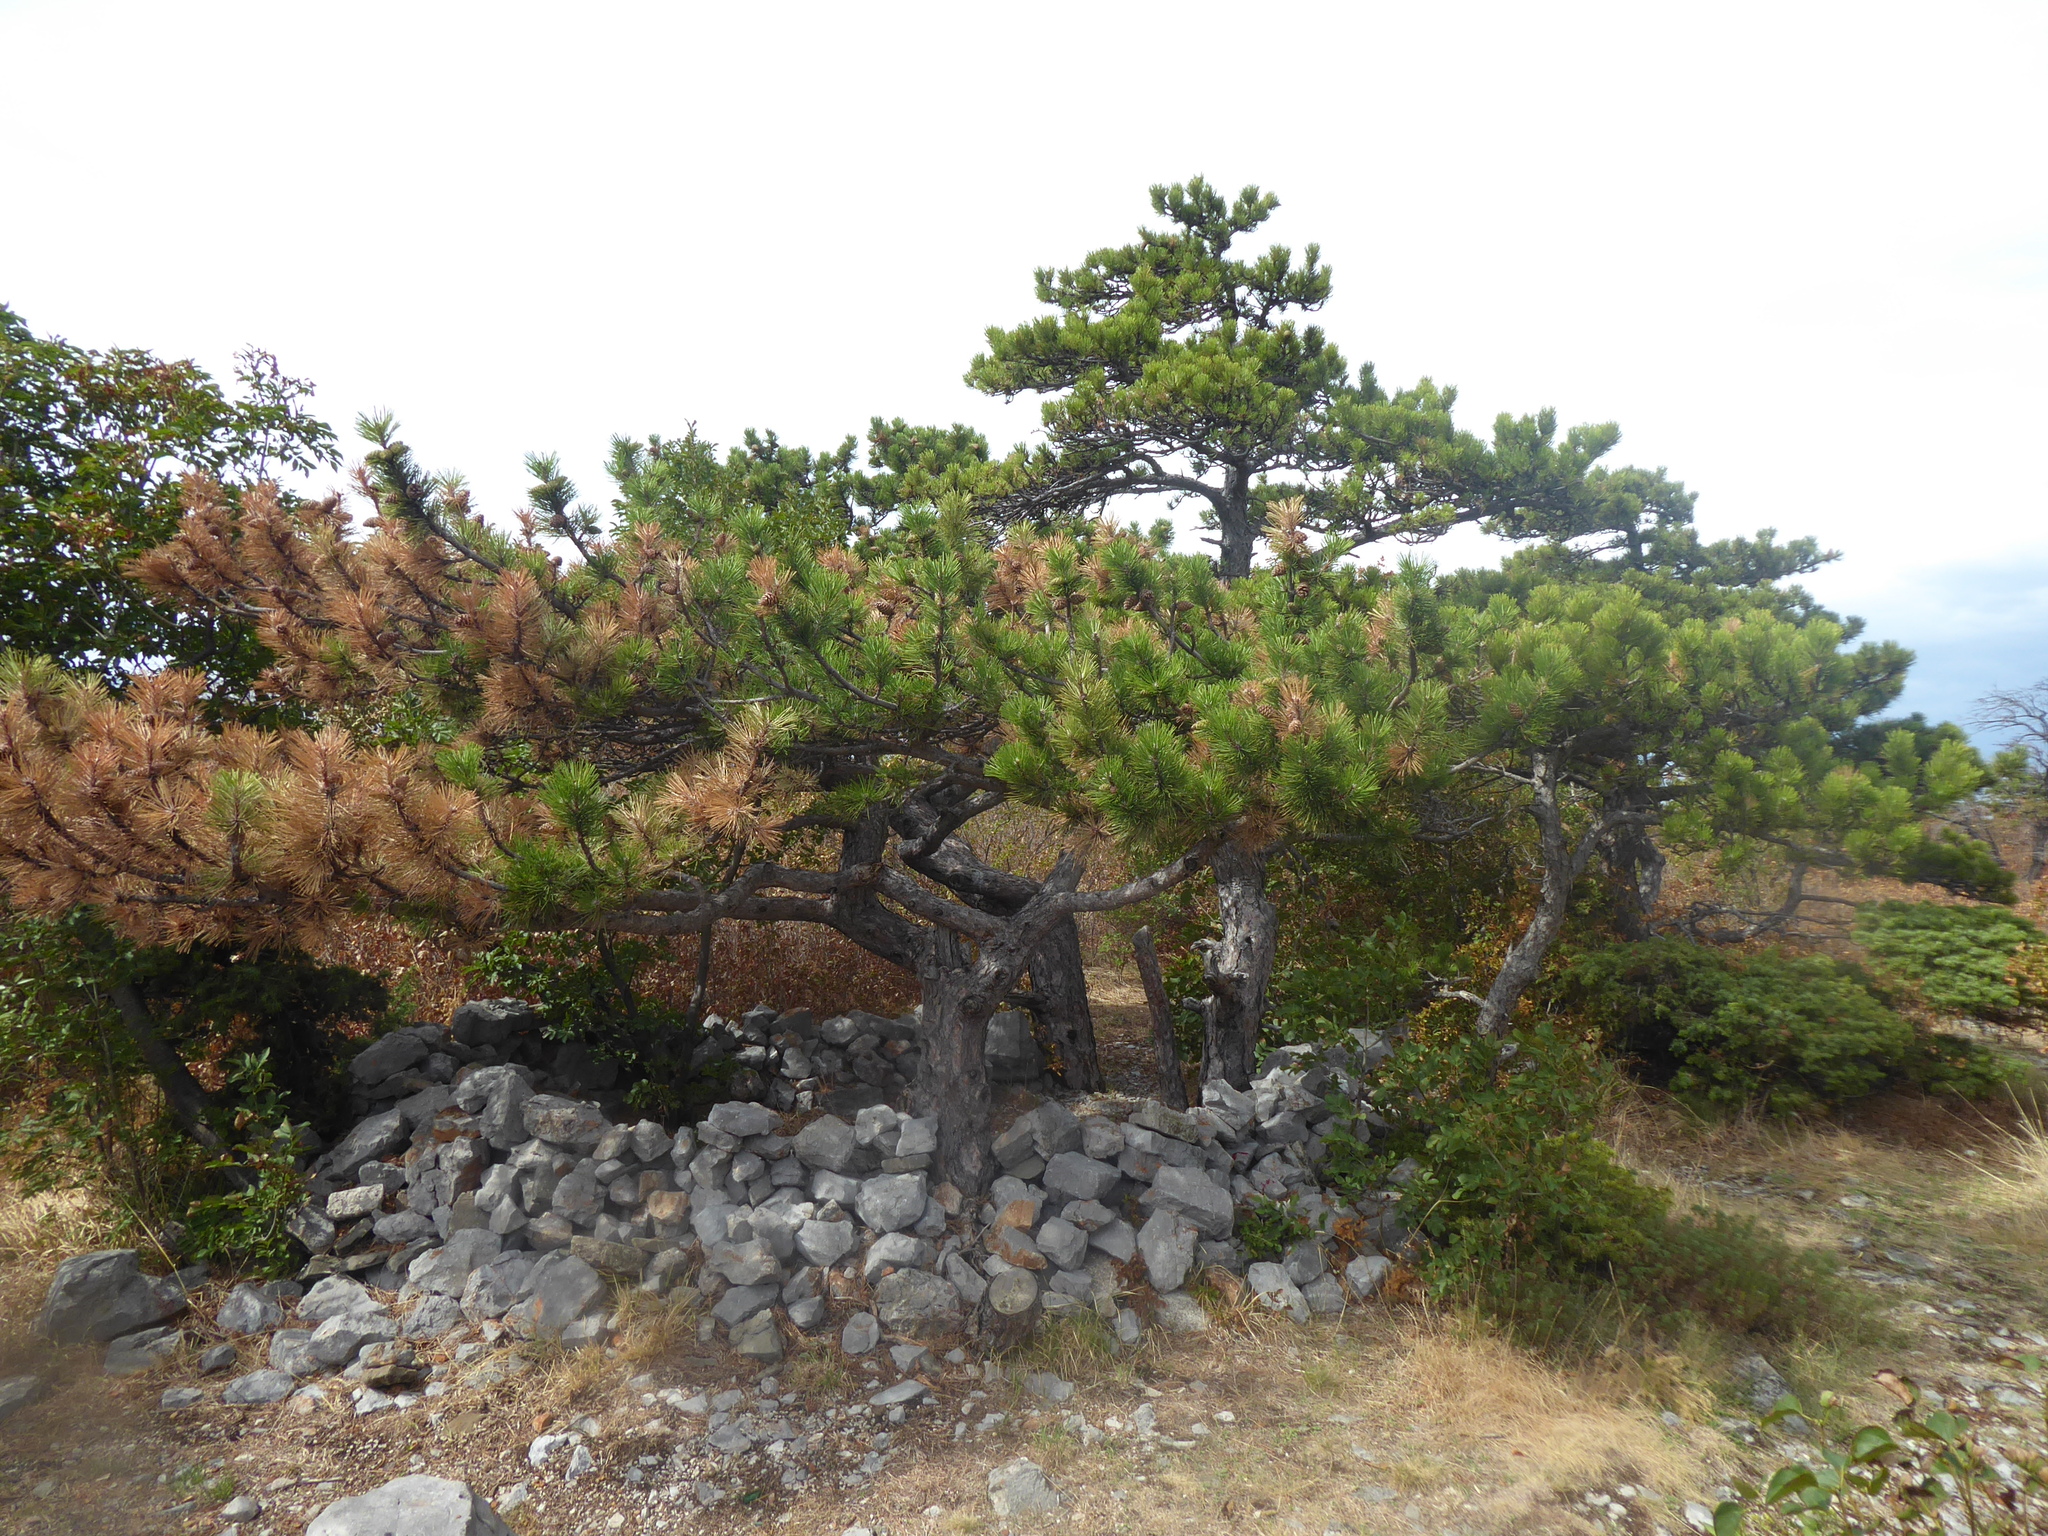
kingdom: Plantae
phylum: Tracheophyta
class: Pinopsida
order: Pinales
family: Pinaceae
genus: Pinus
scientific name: Pinus nigra
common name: Austrian pine
